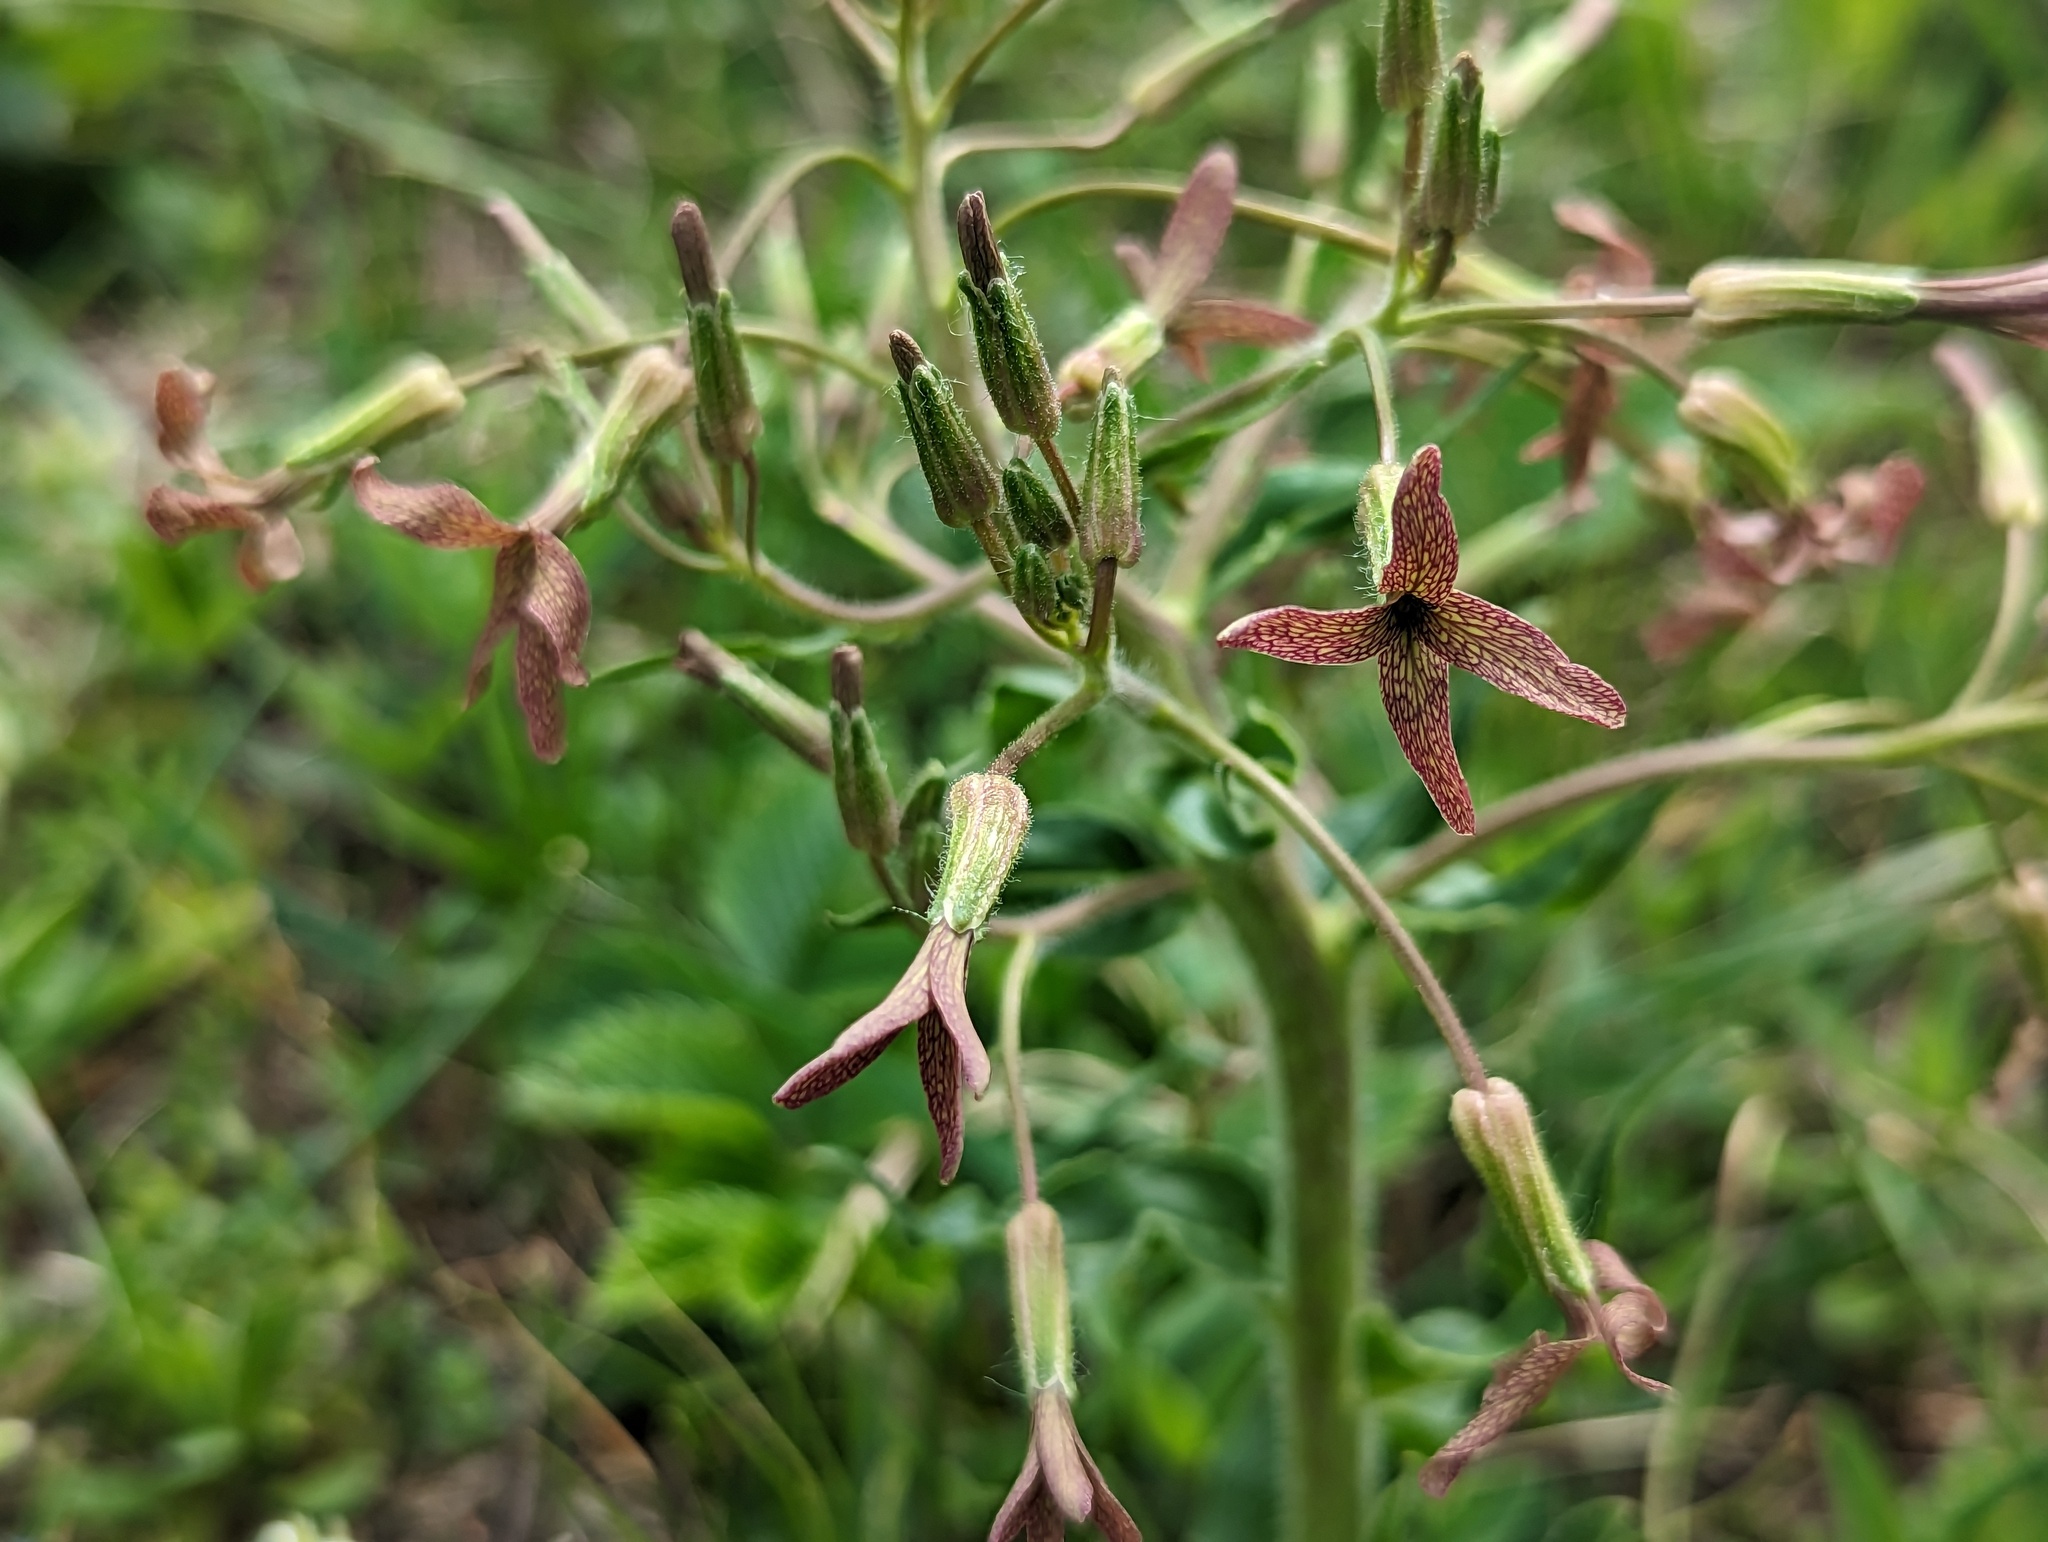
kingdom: Plantae
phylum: Tracheophyta
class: Magnoliopsida
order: Brassicales
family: Brassicaceae
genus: Hesperis
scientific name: Hesperis tristis
